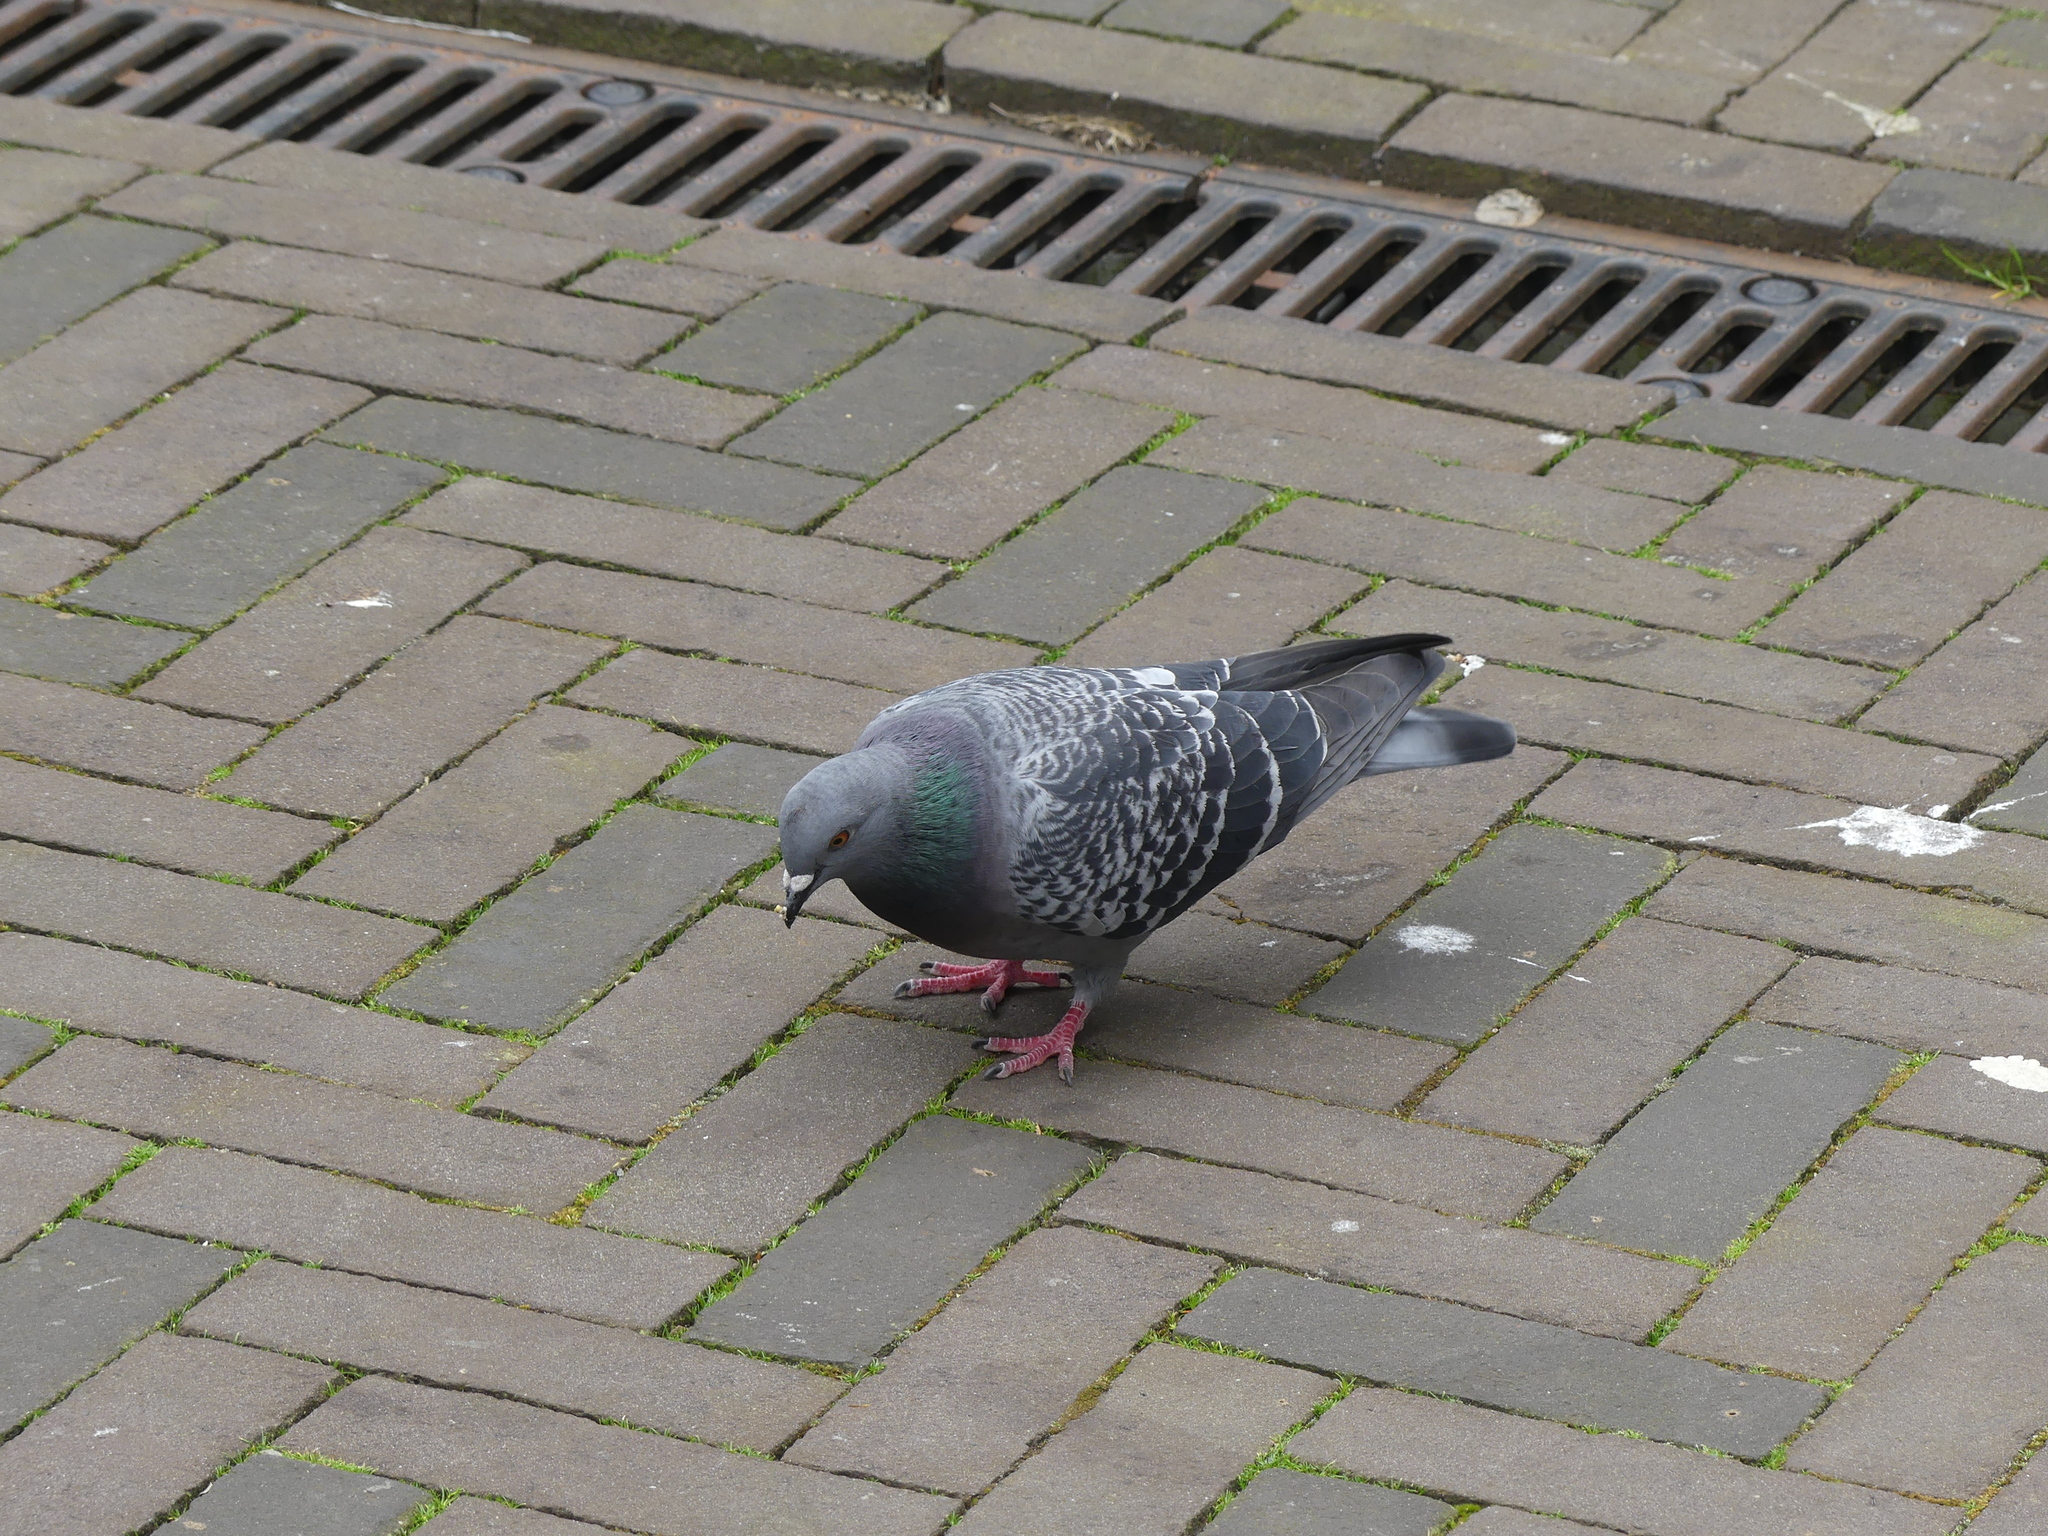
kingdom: Animalia
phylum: Chordata
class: Aves
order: Columbiformes
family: Columbidae
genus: Columba
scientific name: Columba livia
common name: Rock pigeon
